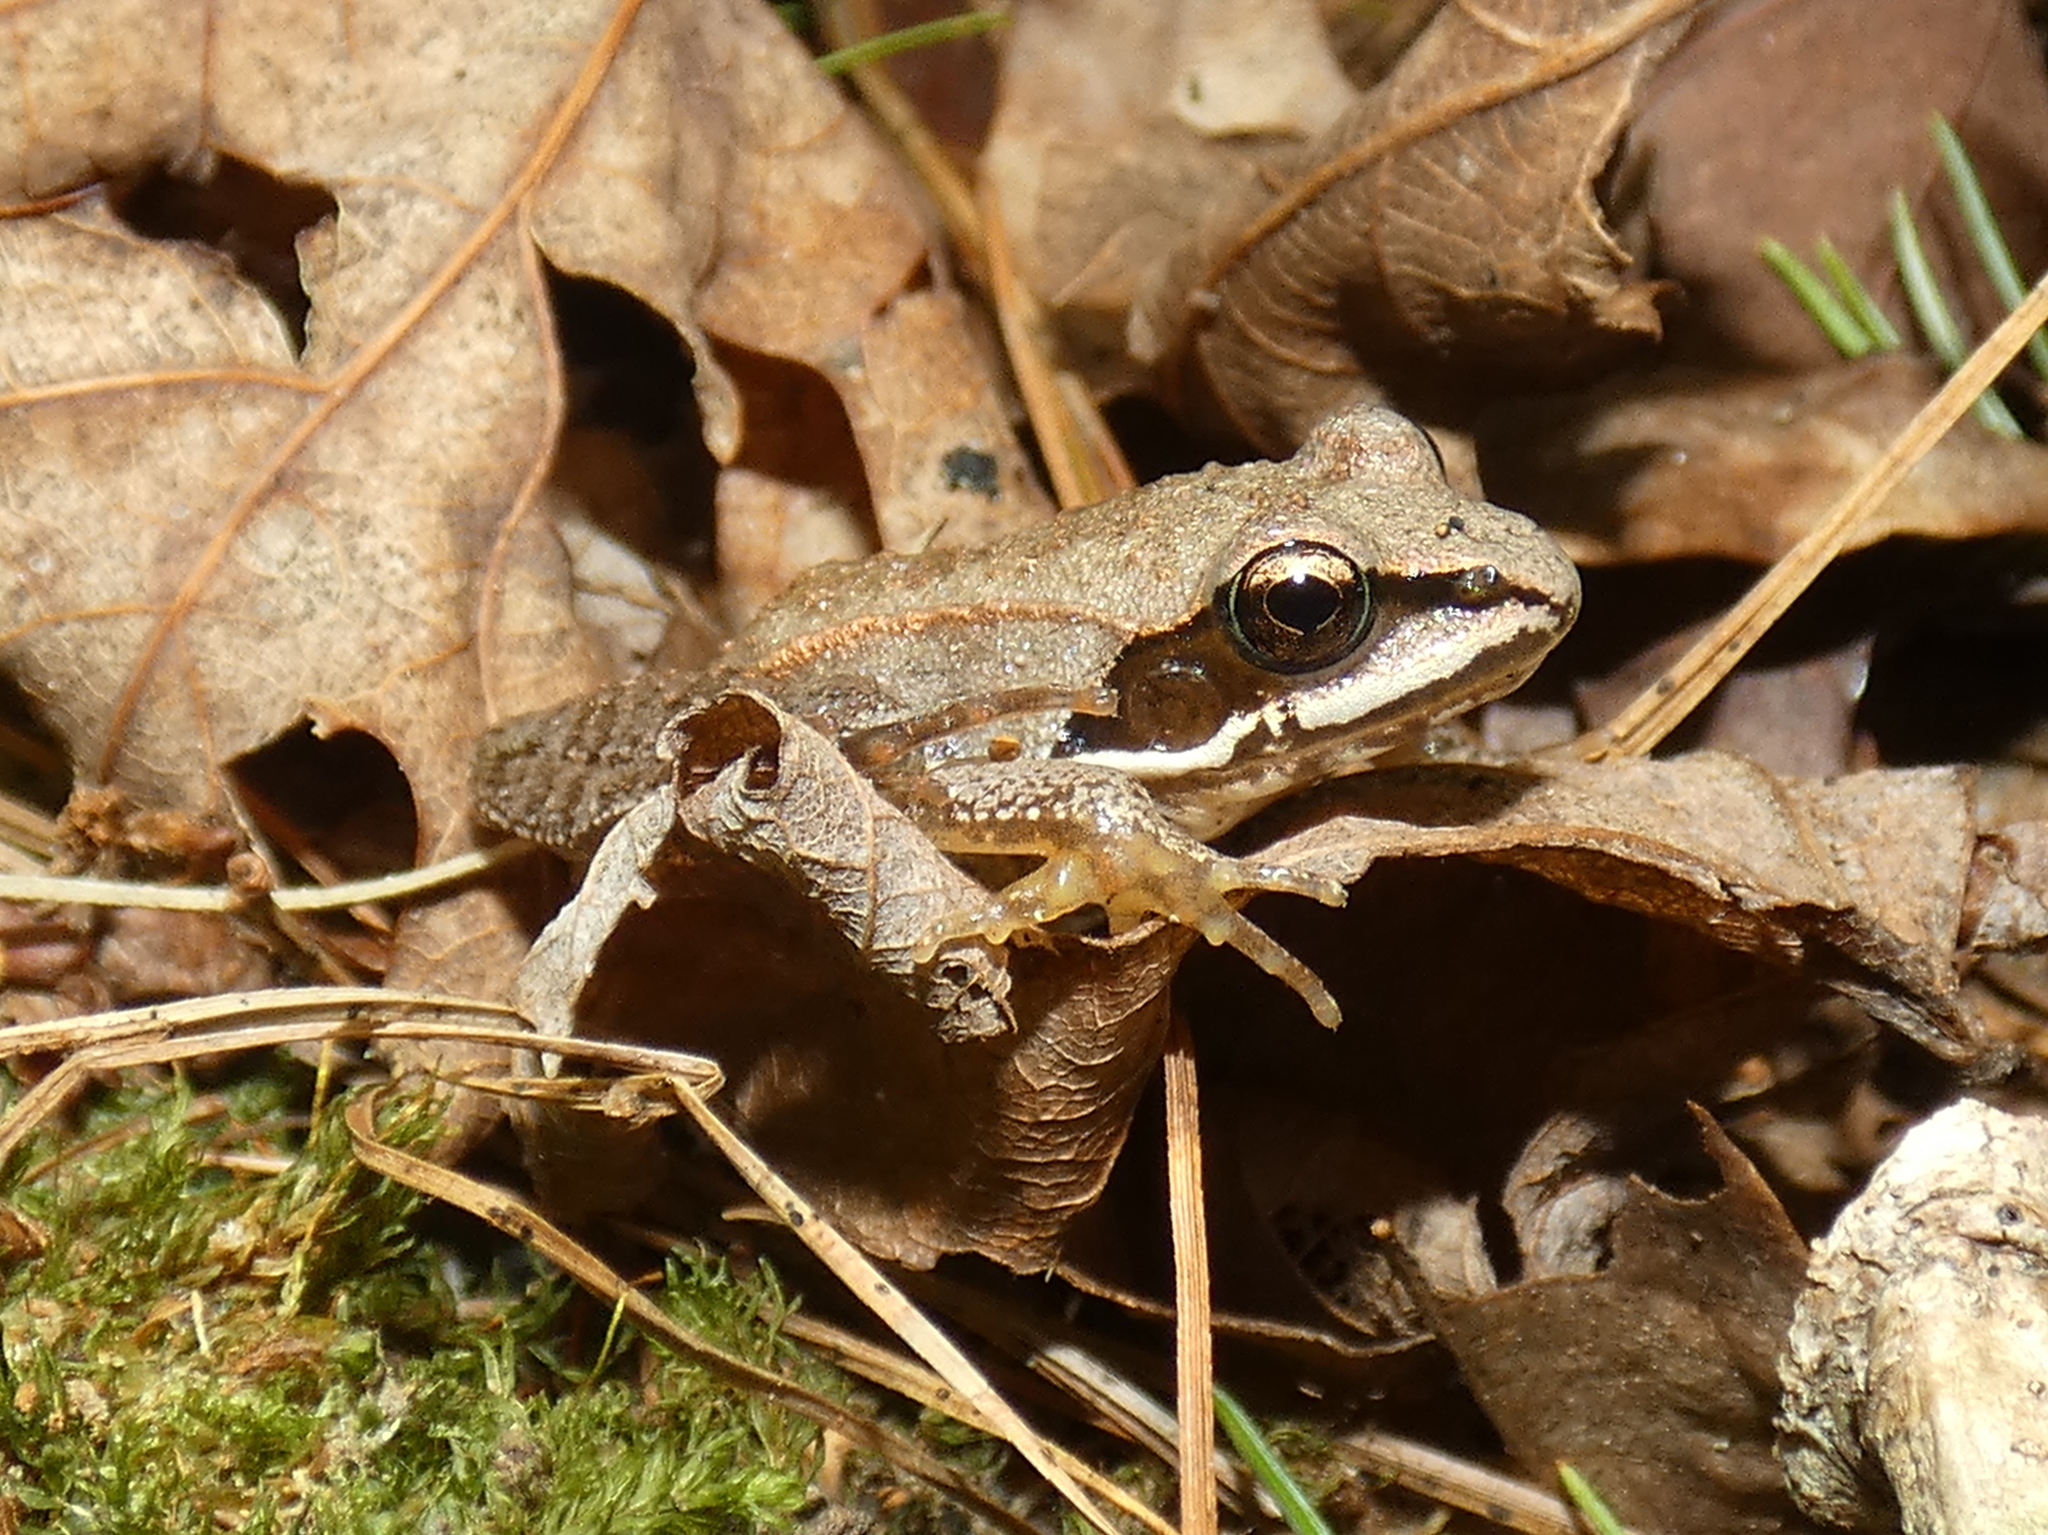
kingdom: Animalia
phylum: Chordata
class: Amphibia
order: Anura
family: Ranidae
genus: Lithobates
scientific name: Lithobates sylvaticus
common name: Wood frog
